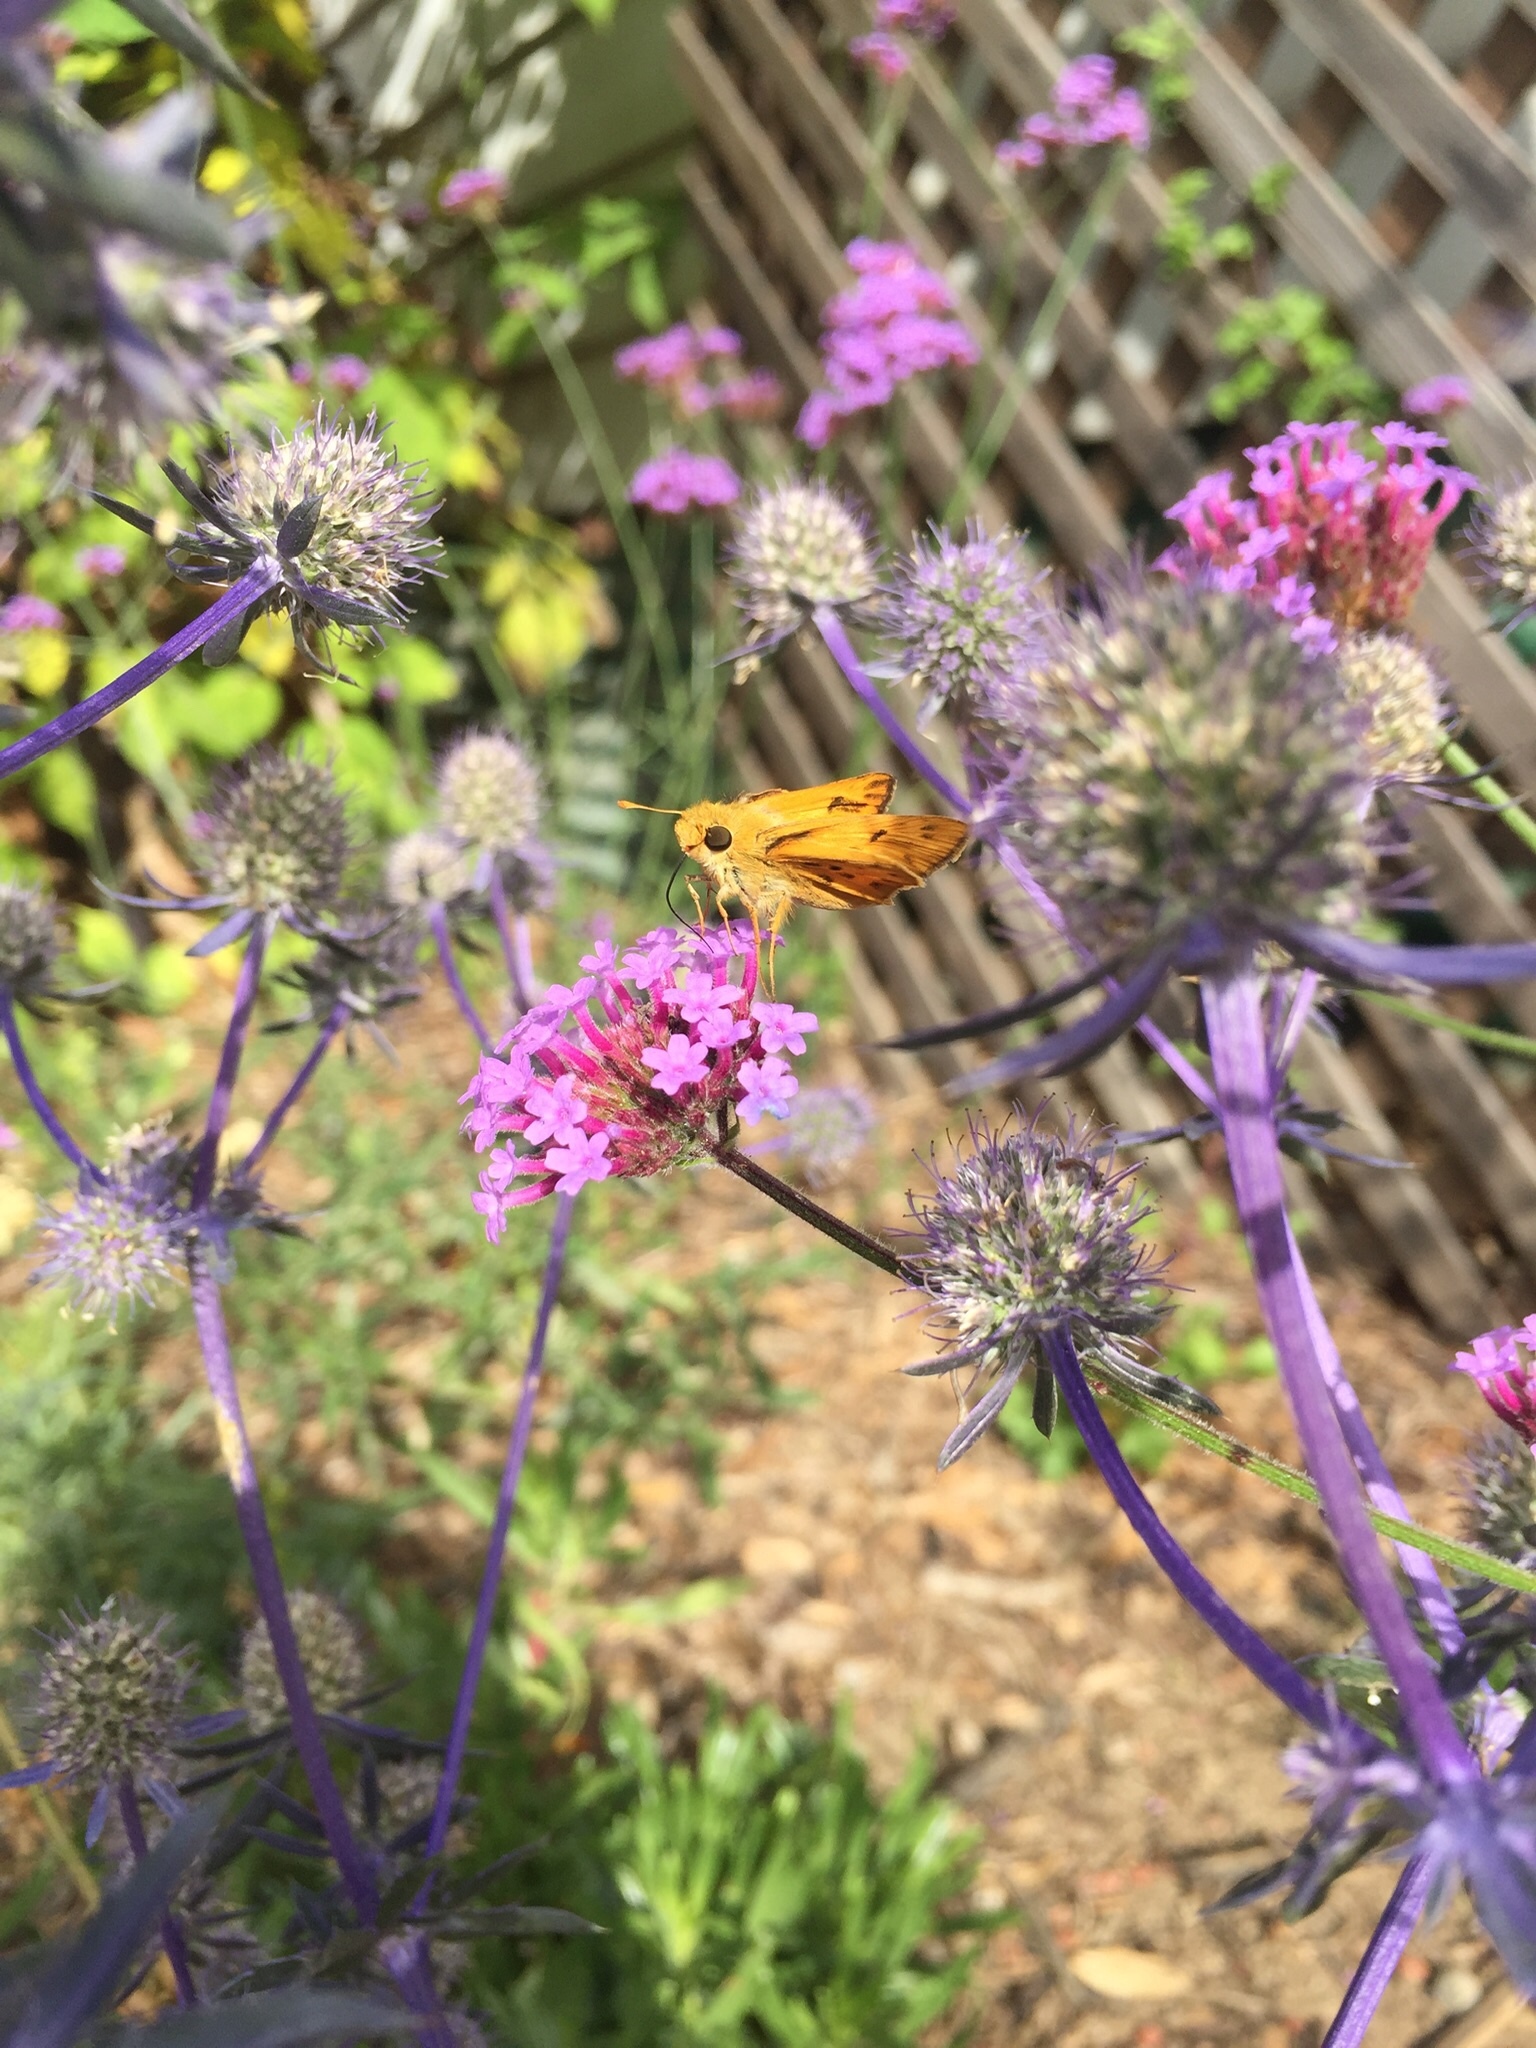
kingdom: Animalia
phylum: Arthropoda
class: Insecta
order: Lepidoptera
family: Hesperiidae
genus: Hylephila
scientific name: Hylephila phyleus
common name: Fiery skipper
